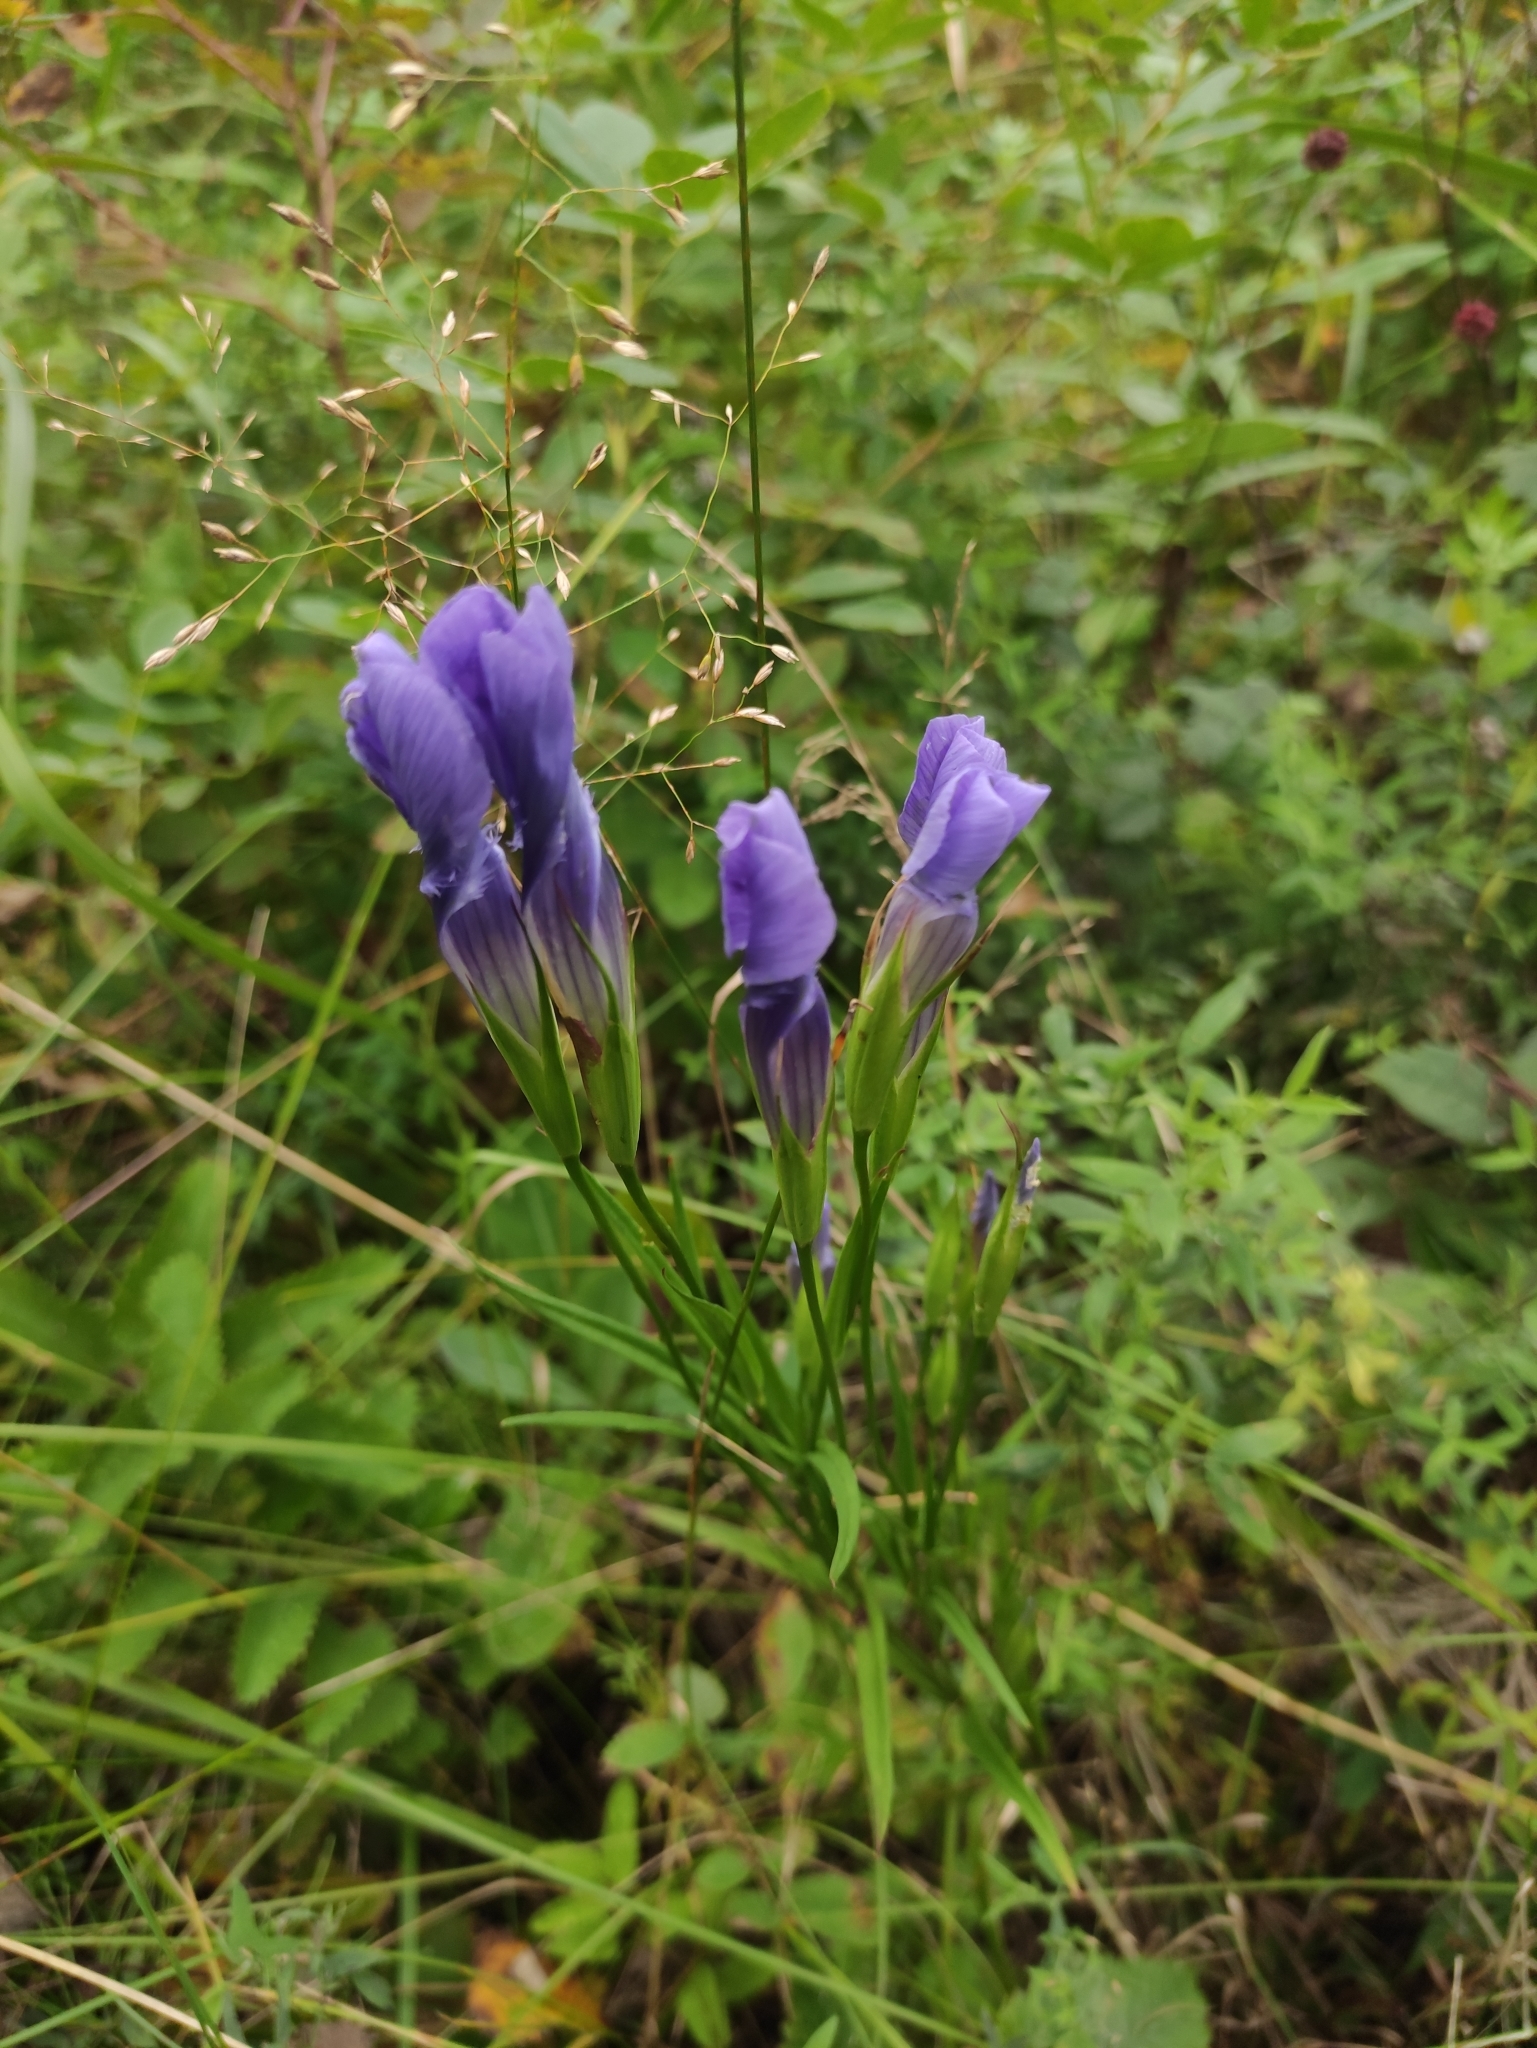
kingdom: Plantae
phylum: Tracheophyta
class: Magnoliopsida
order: Gentianales
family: Gentianaceae
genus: Gentianopsis
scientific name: Gentianopsis barbata
